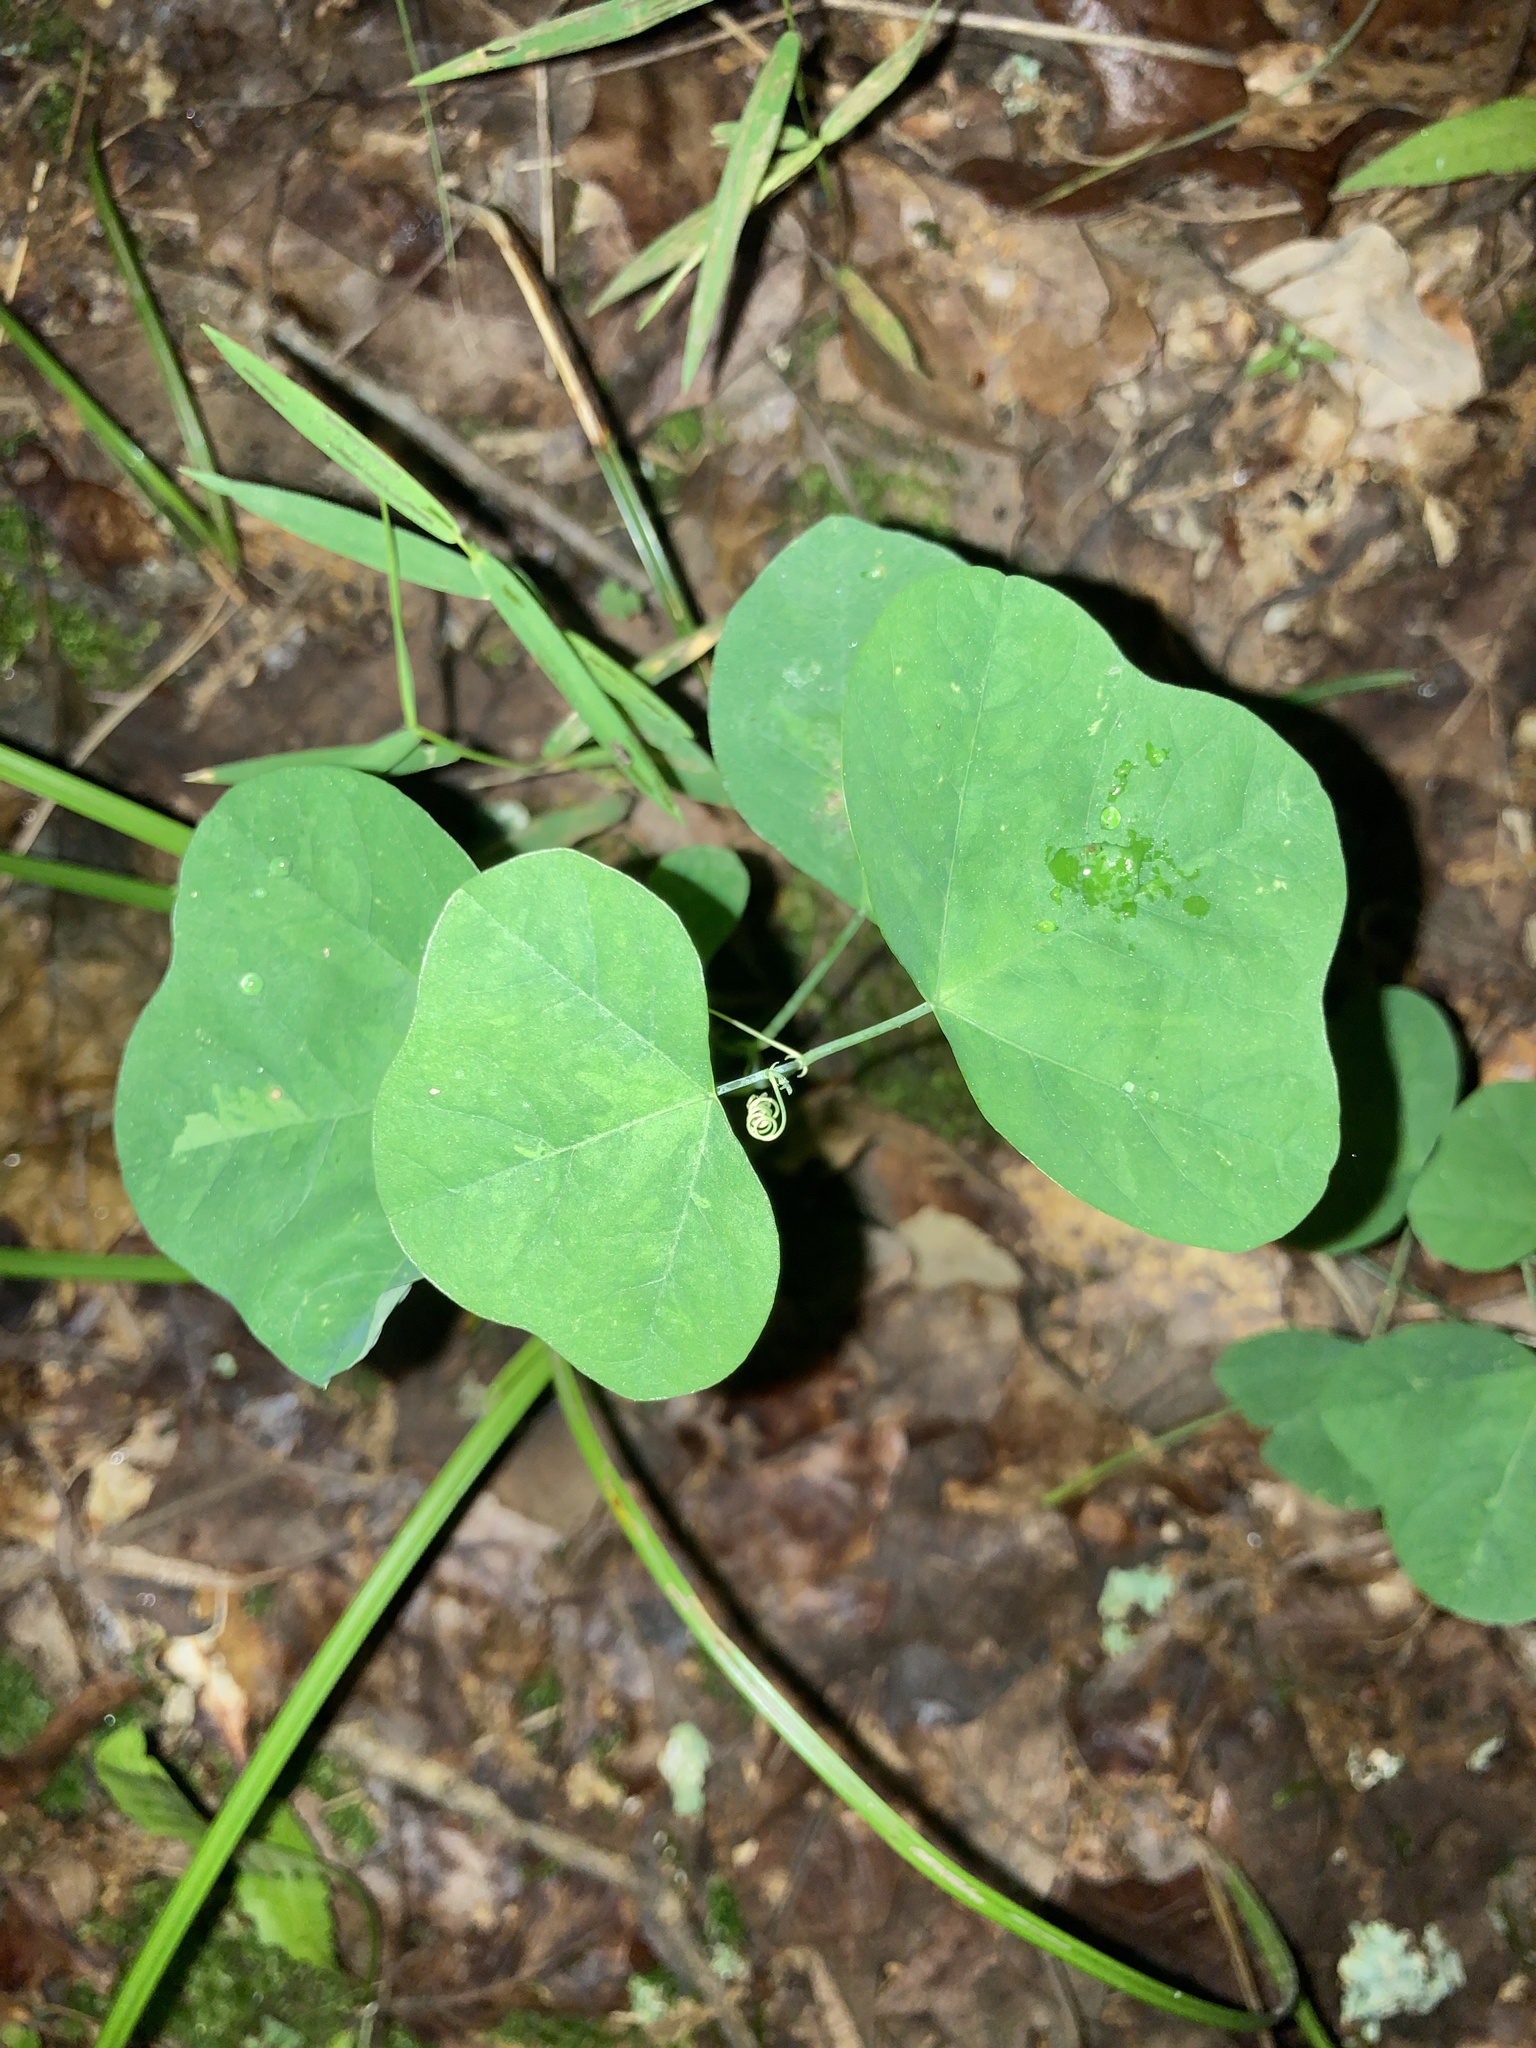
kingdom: Plantae
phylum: Tracheophyta
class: Magnoliopsida
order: Malpighiales
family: Passifloraceae
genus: Passiflora
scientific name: Passiflora lutea
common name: Yellow passionflower
